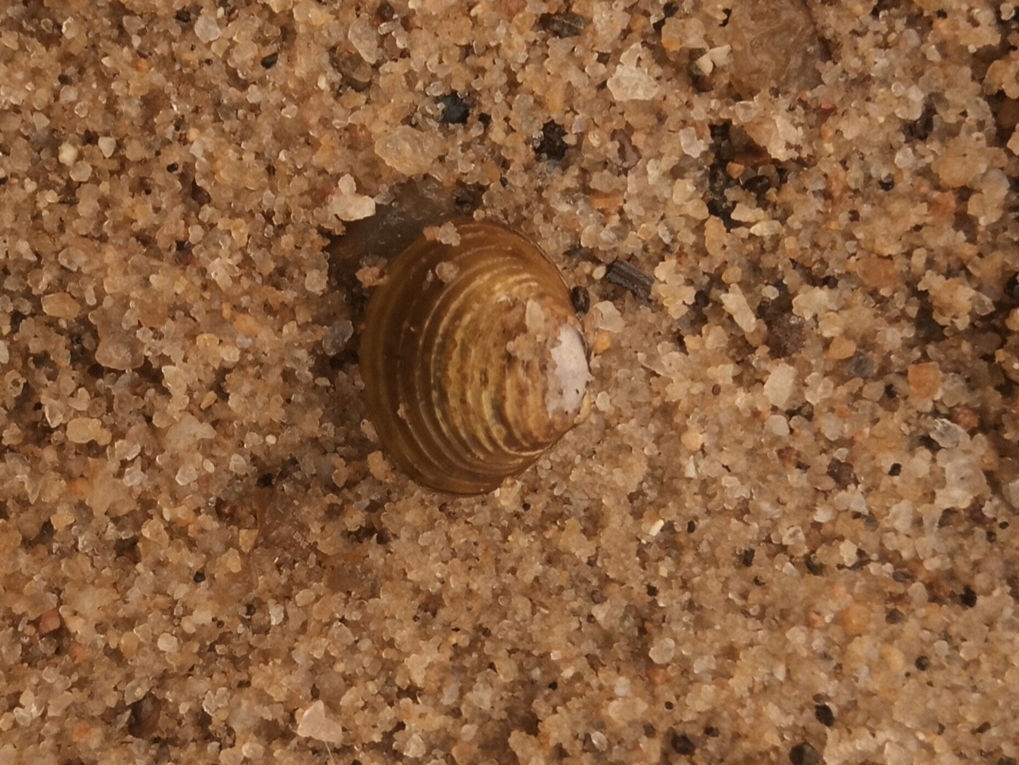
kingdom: Animalia
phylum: Mollusca
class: Bivalvia
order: Venerida
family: Cyrenidae
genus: Corbicula
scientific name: Corbicula fluminea
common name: Asian clam
